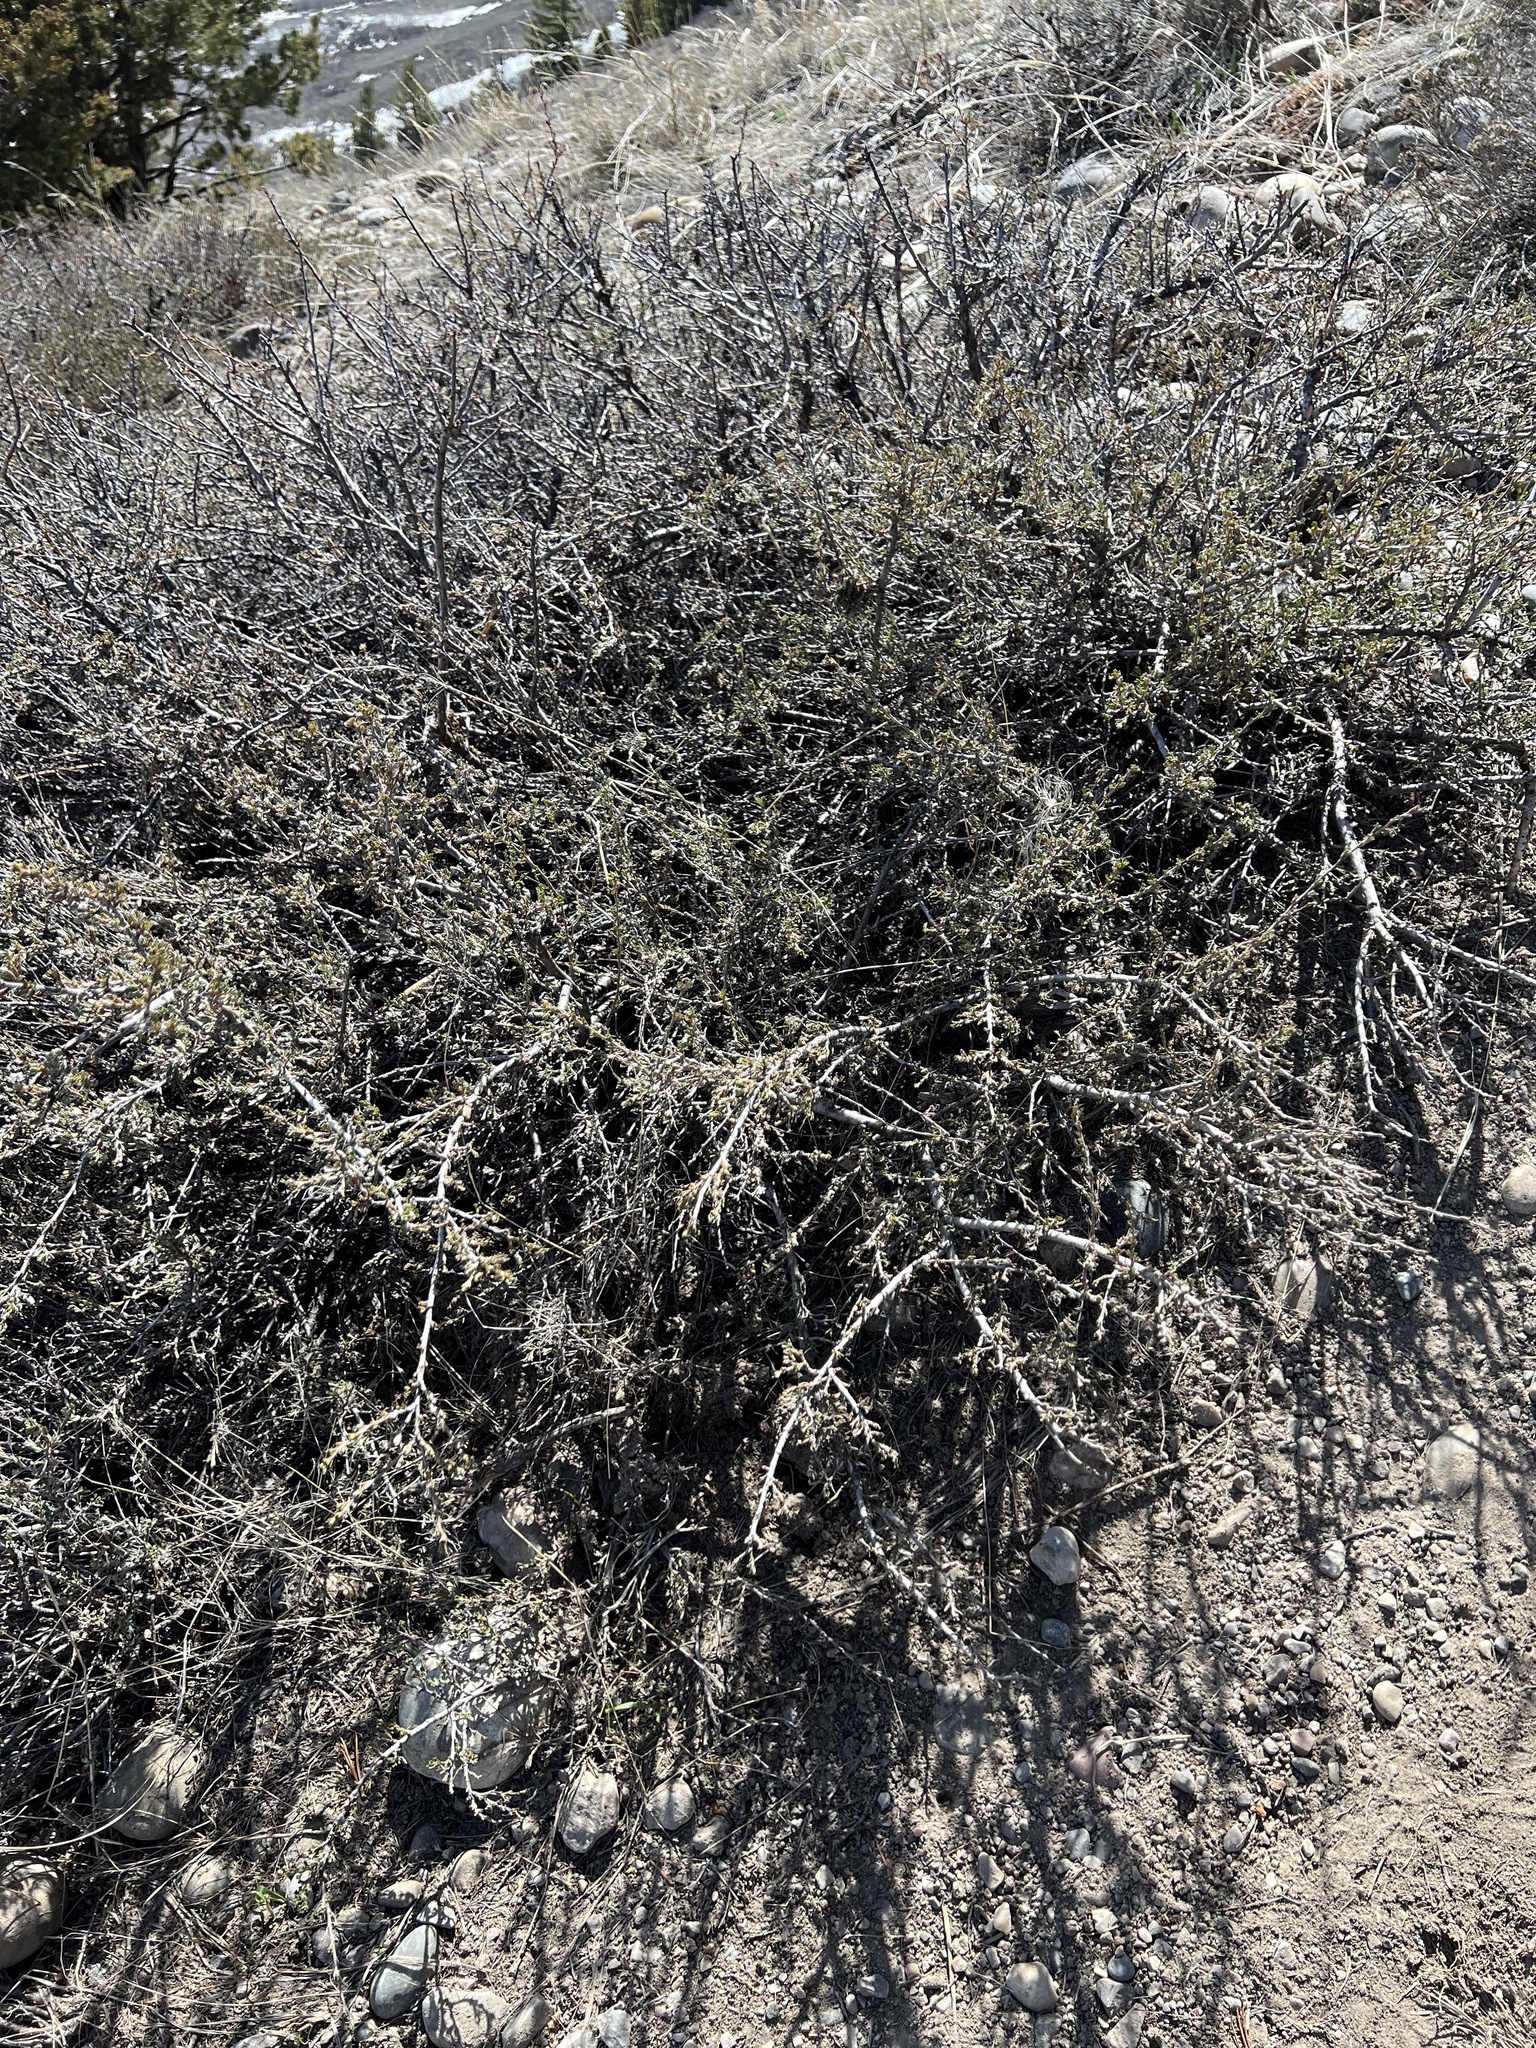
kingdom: Plantae
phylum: Tracheophyta
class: Magnoliopsida
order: Rosales
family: Rosaceae
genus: Purshia
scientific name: Purshia tridentata
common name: Antelope bitterbrush
